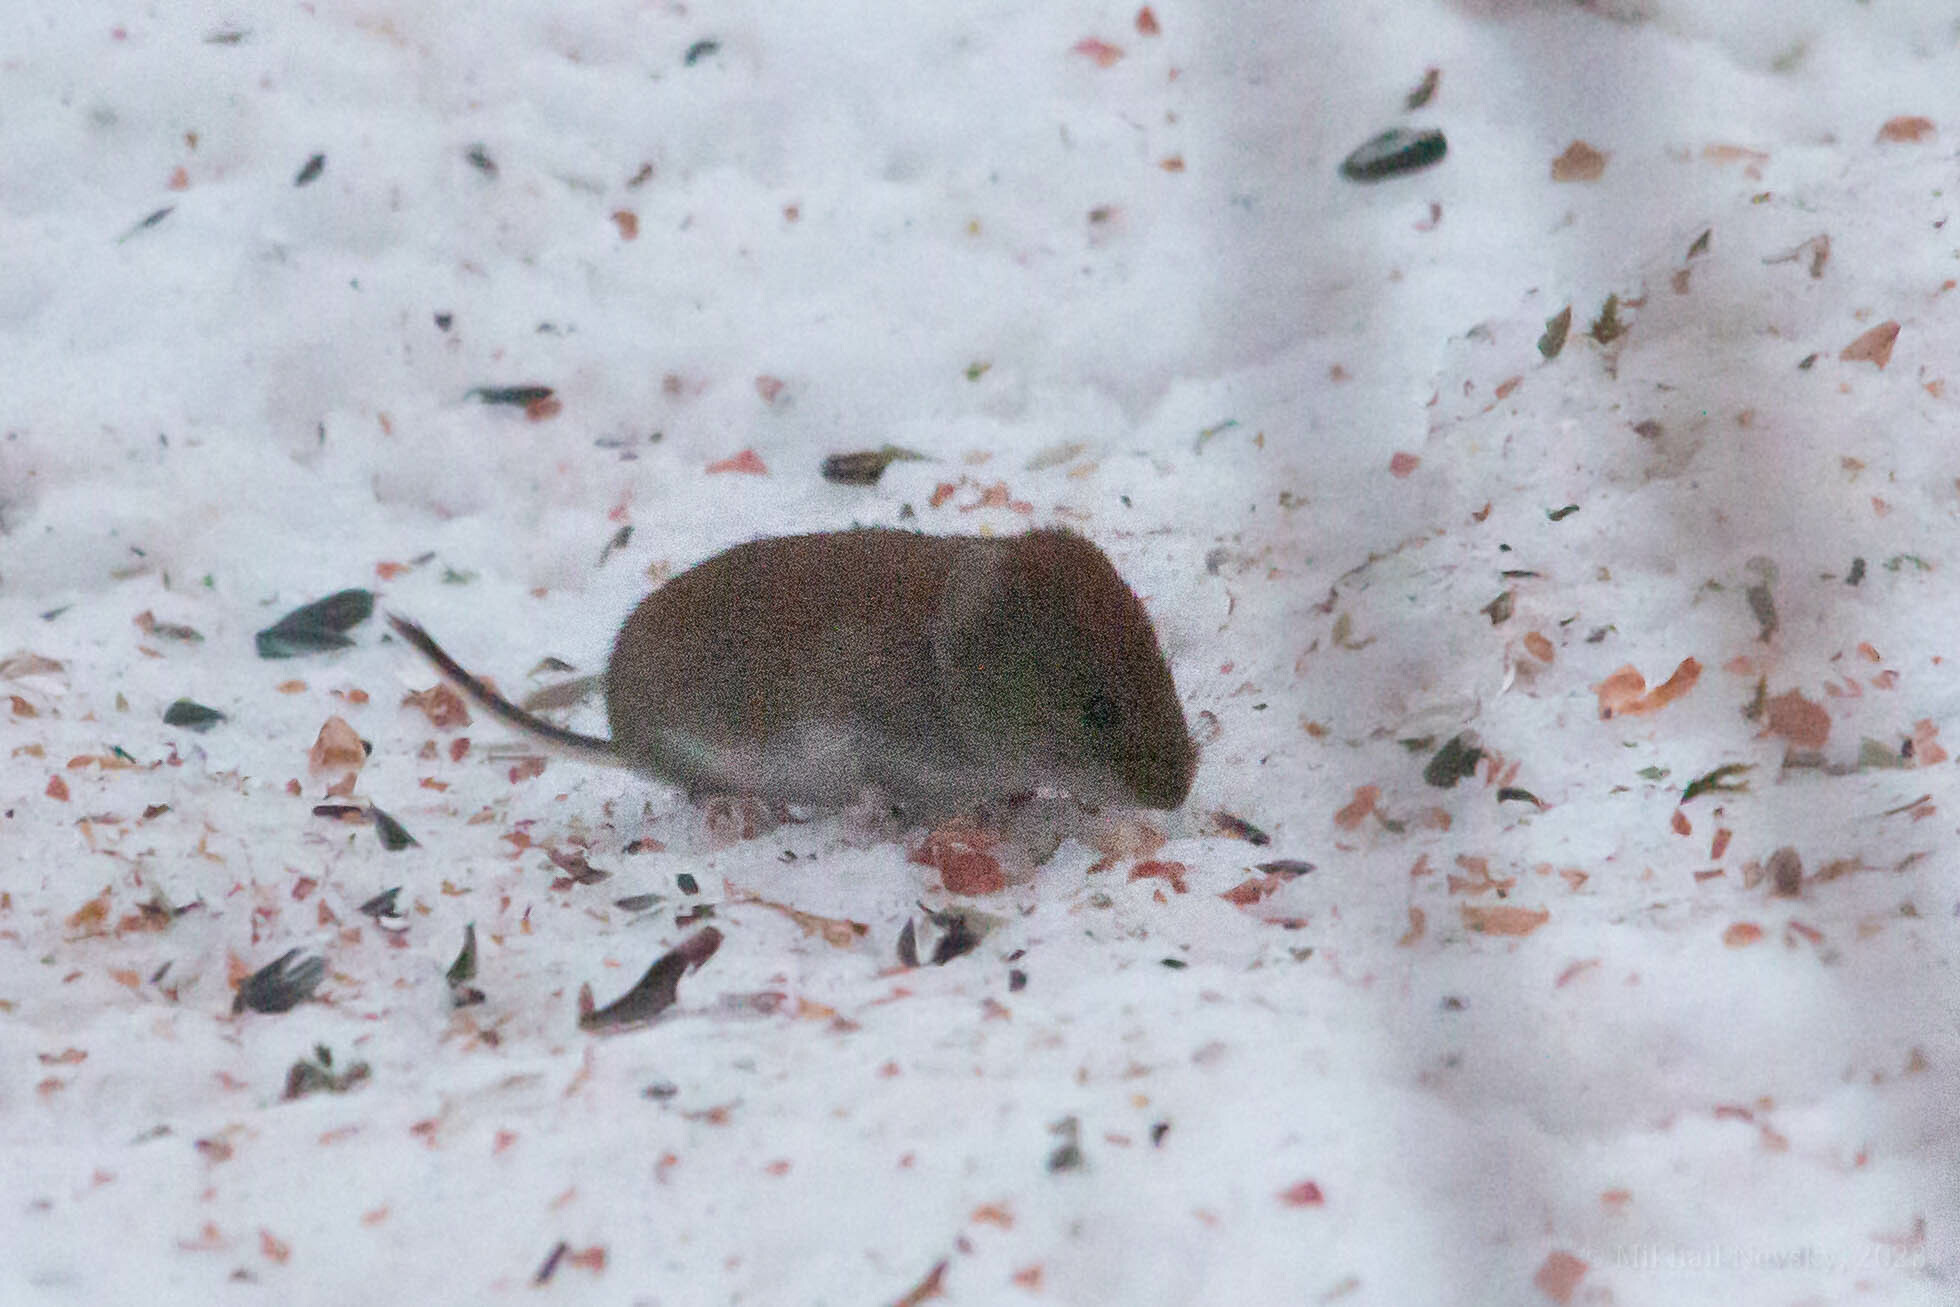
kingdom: Animalia
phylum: Chordata
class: Mammalia
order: Rodentia
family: Cricetidae
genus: Myodes
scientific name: Myodes glareolus
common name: Bank vole
